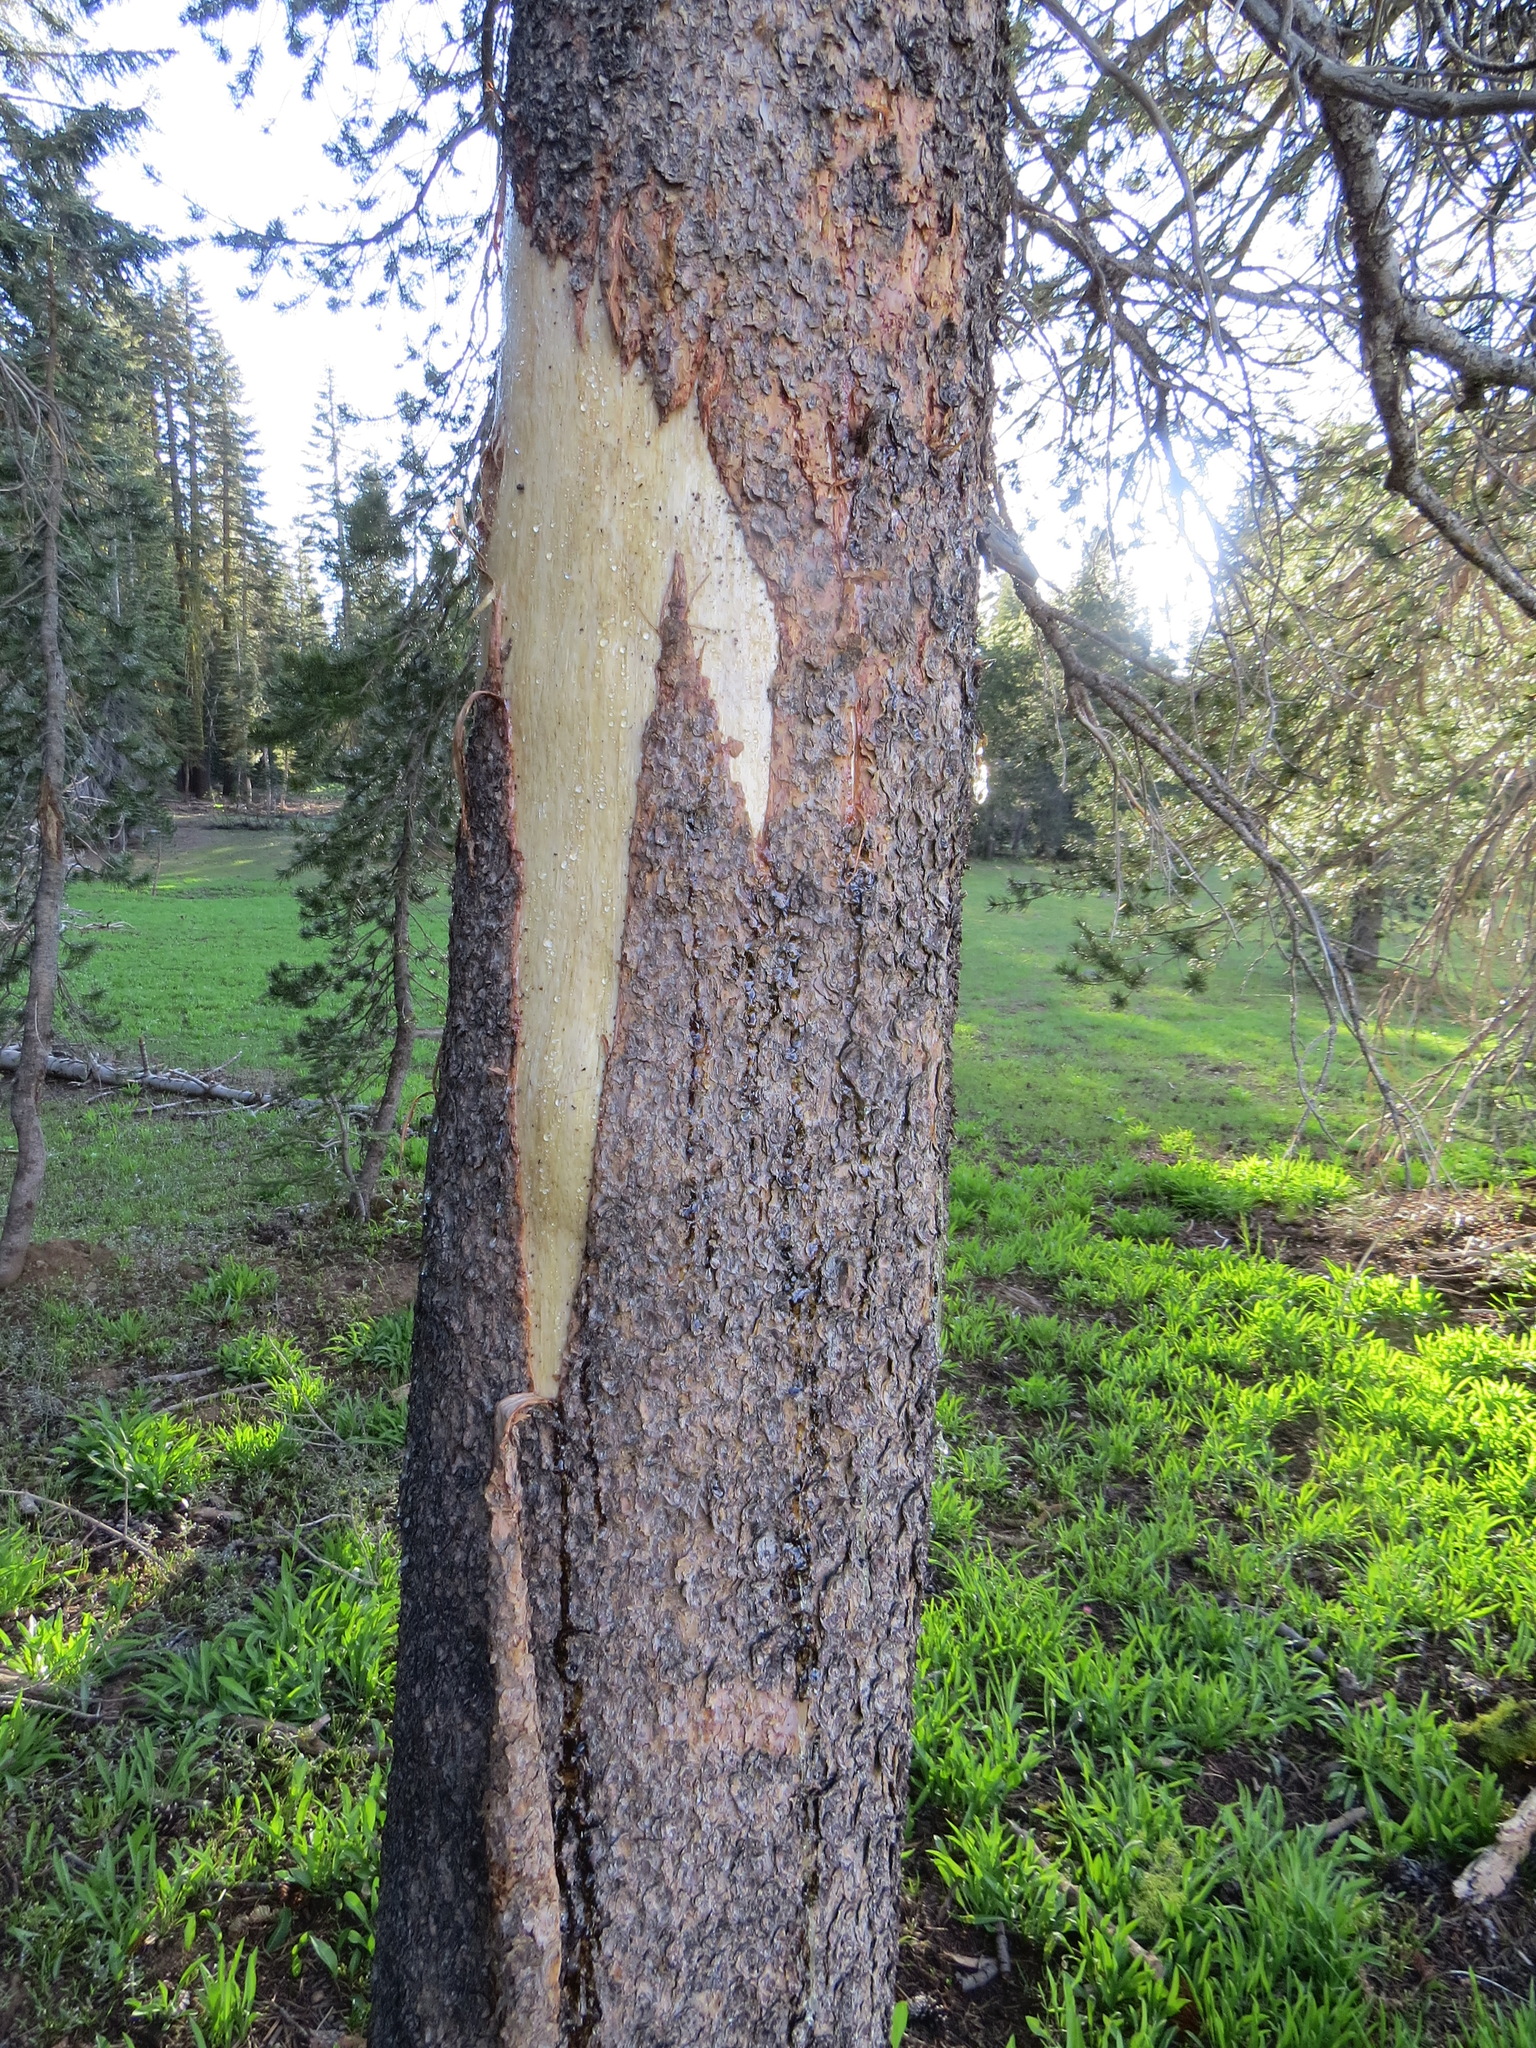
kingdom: Animalia
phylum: Chordata
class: Mammalia
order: Carnivora
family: Ursidae
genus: Ursus
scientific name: Ursus americanus
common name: American black bear
